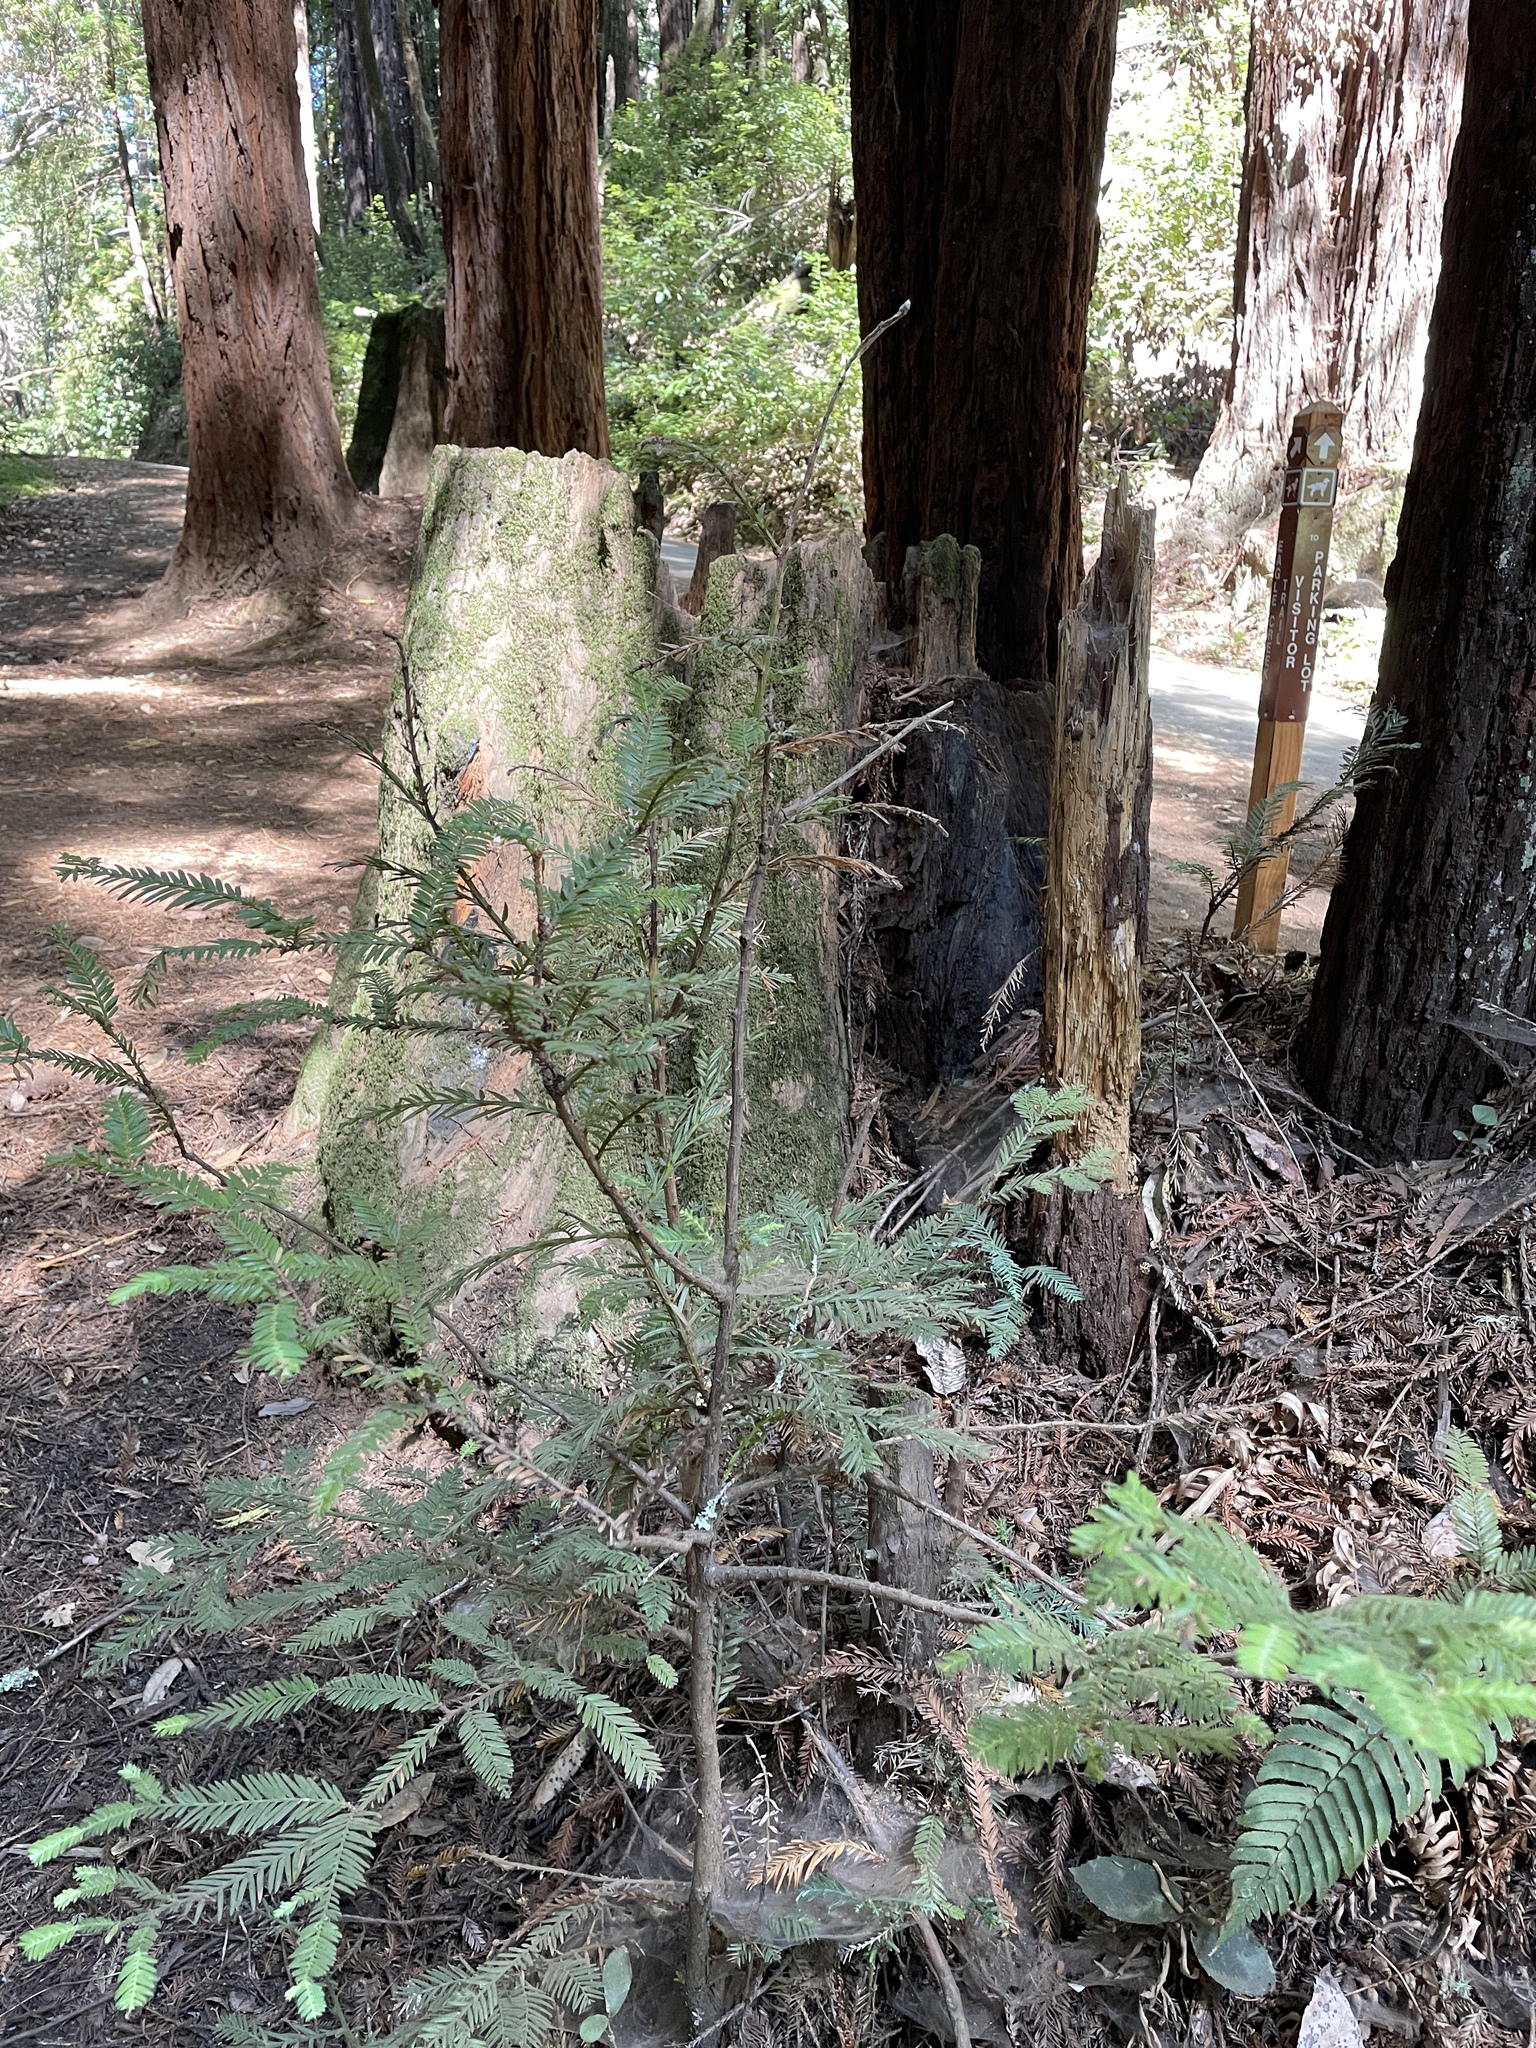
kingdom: Plantae
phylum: Tracheophyta
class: Pinopsida
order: Pinales
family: Cupressaceae
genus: Sequoia
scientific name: Sequoia sempervirens
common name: Coast redwood
